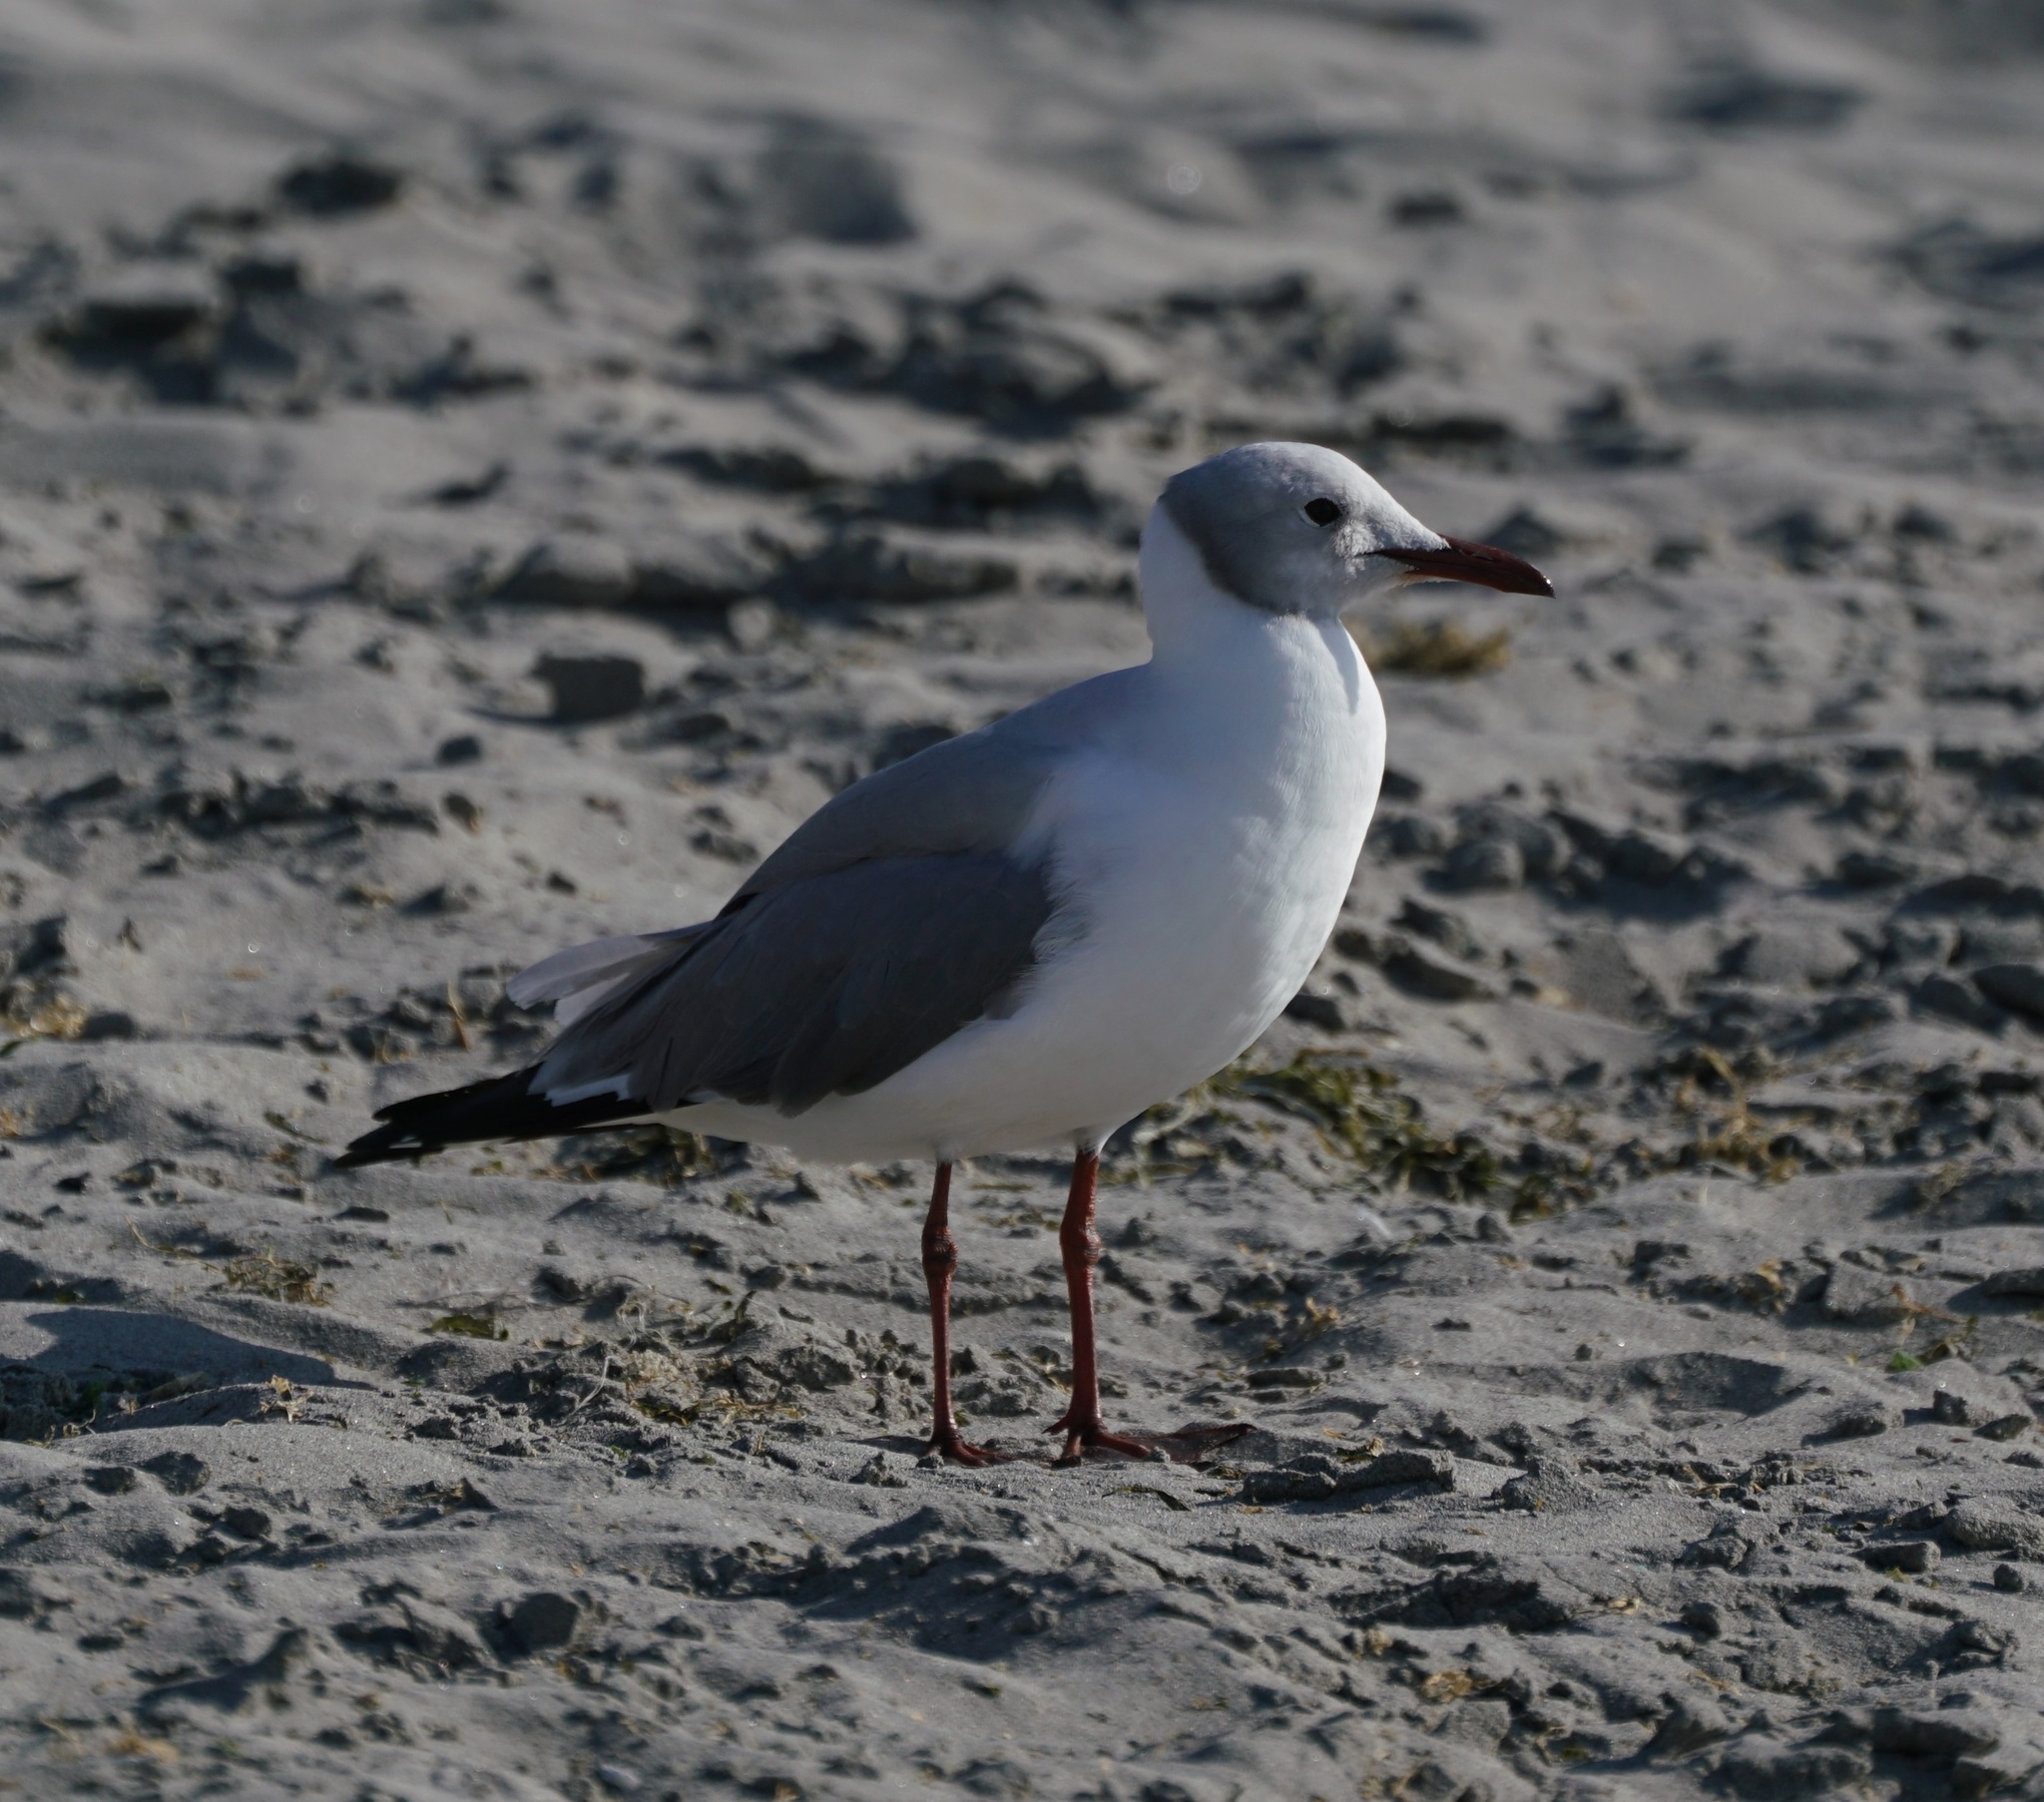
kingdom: Animalia
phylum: Chordata
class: Aves
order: Charadriiformes
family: Laridae
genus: Chroicocephalus
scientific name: Chroicocephalus cirrocephalus
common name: Grey-headed gull
